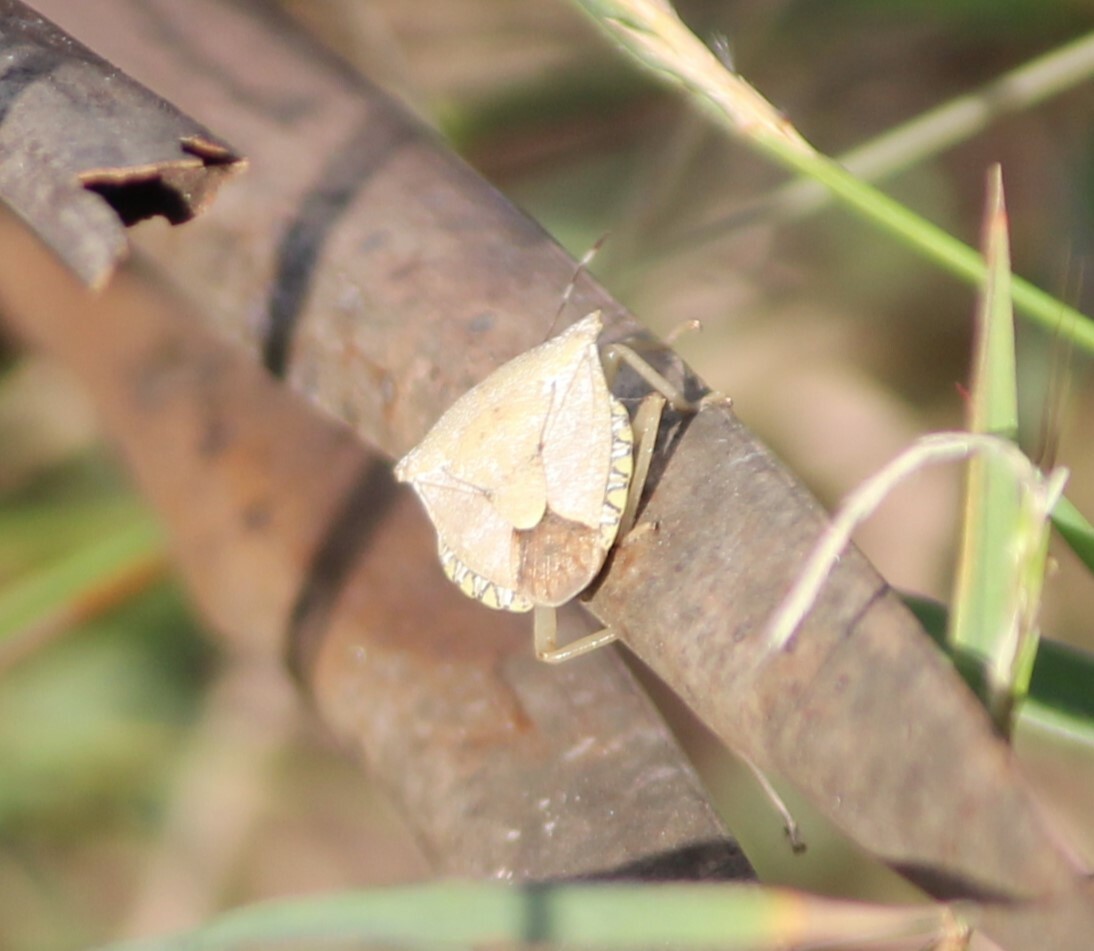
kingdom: Animalia
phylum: Arthropoda
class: Insecta
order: Hemiptera
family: Pentatomidae
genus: Degonetus
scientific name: Degonetus serratus
